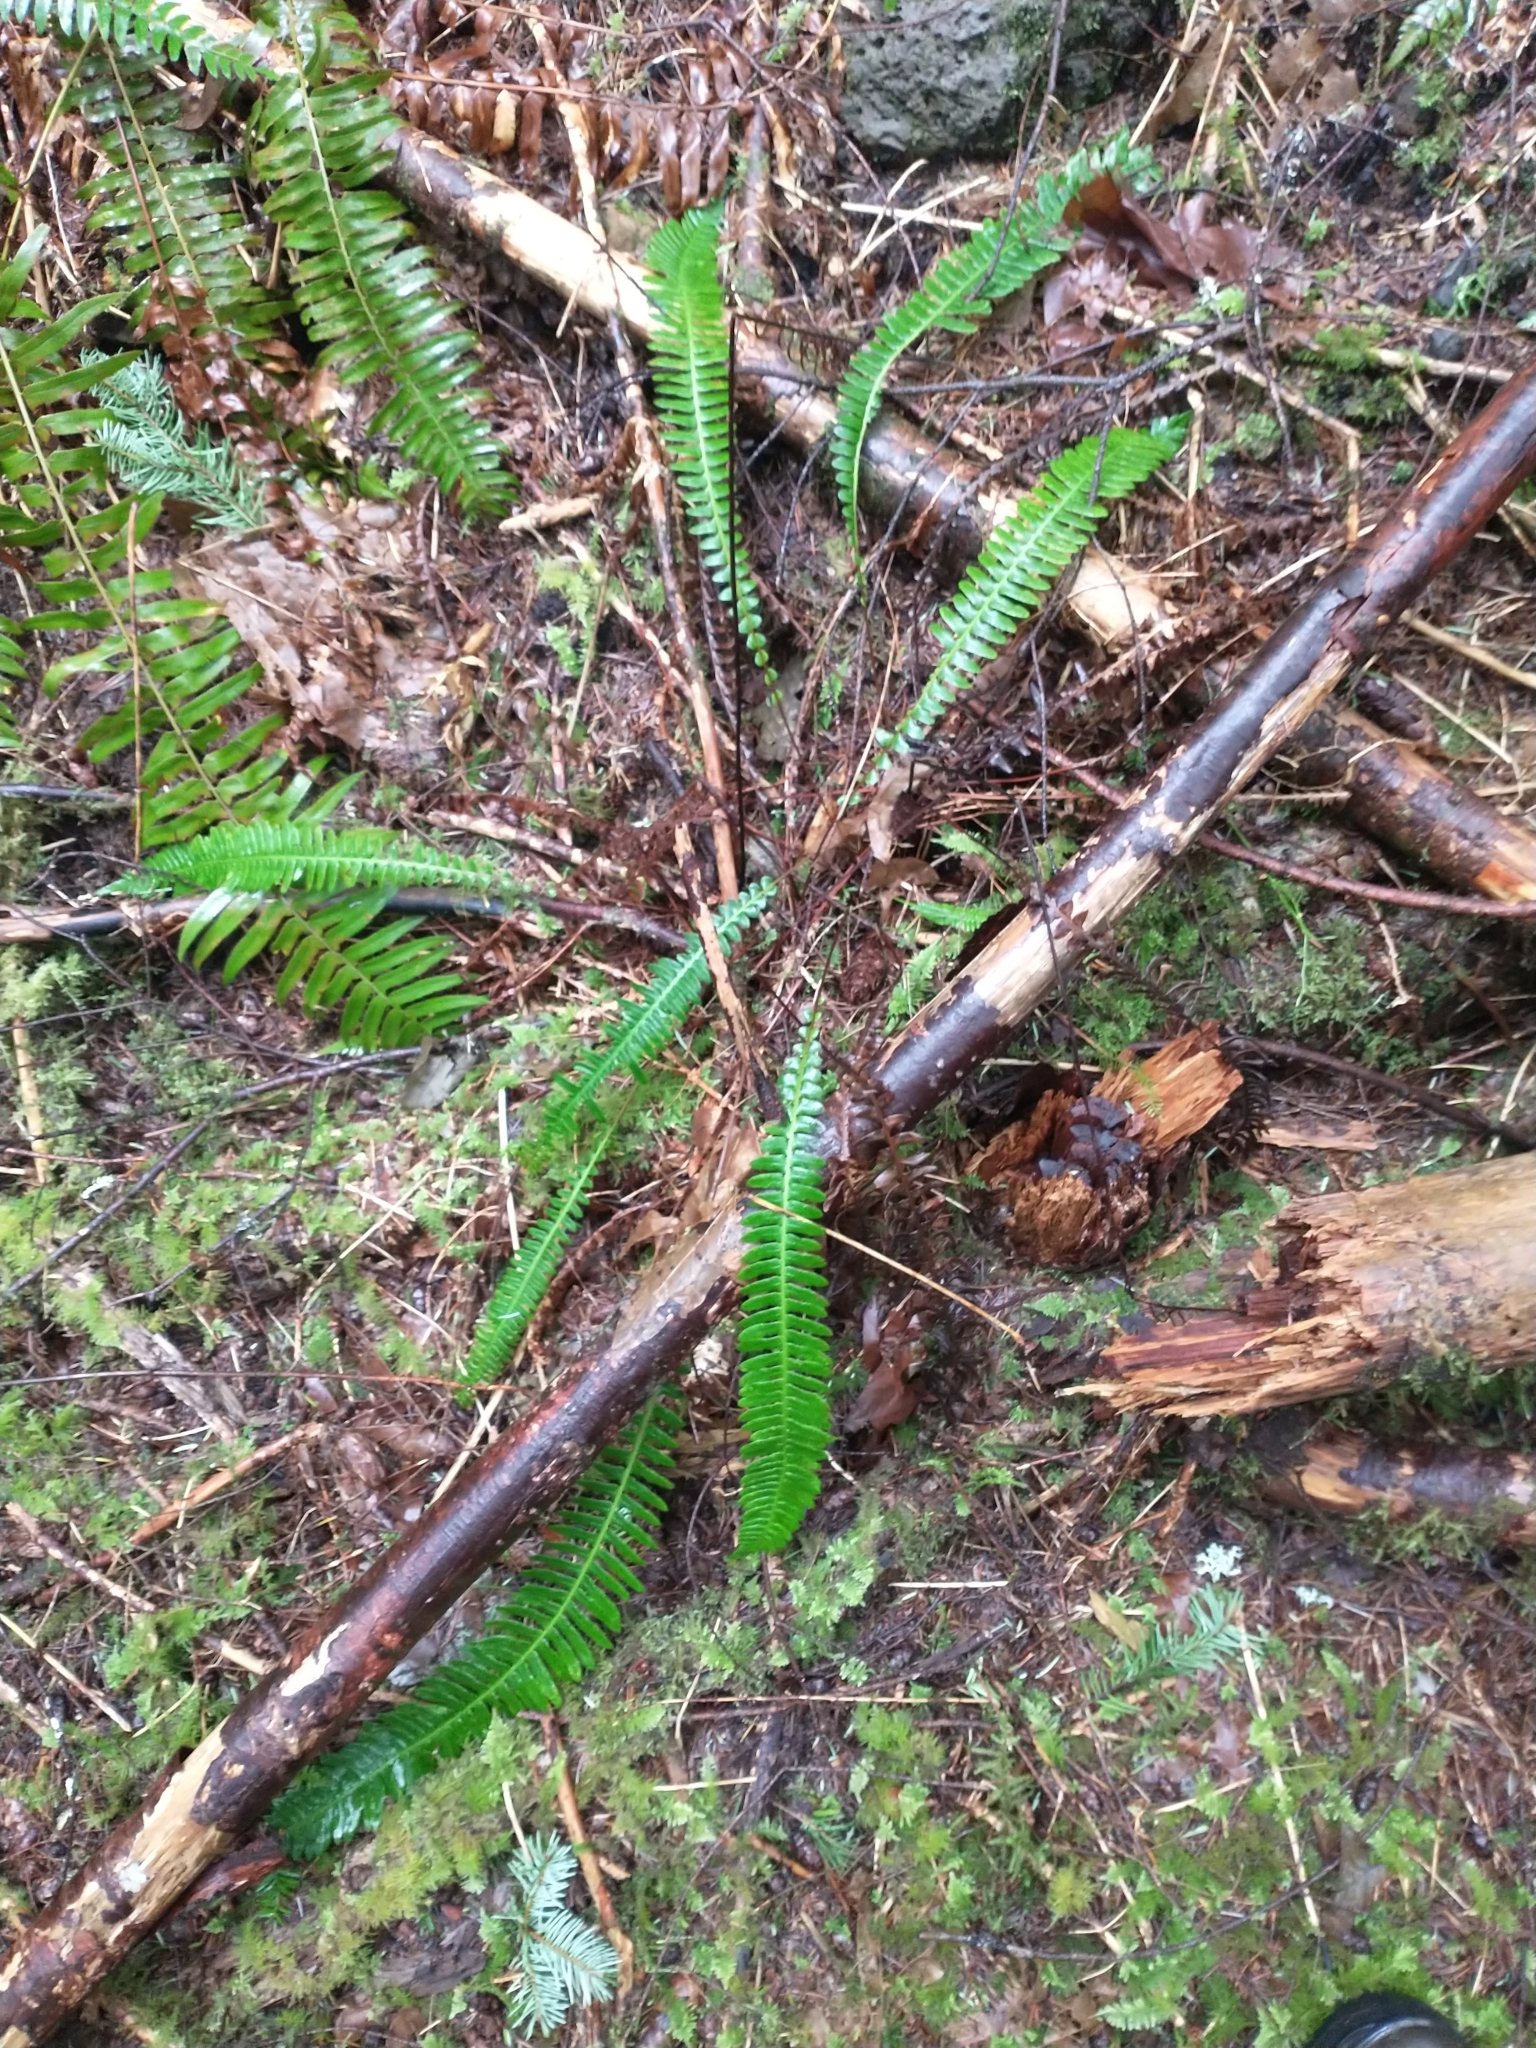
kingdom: Plantae
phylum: Tracheophyta
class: Polypodiopsida
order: Polypodiales
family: Blechnaceae
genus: Struthiopteris
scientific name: Struthiopteris spicant
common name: Deer fern
